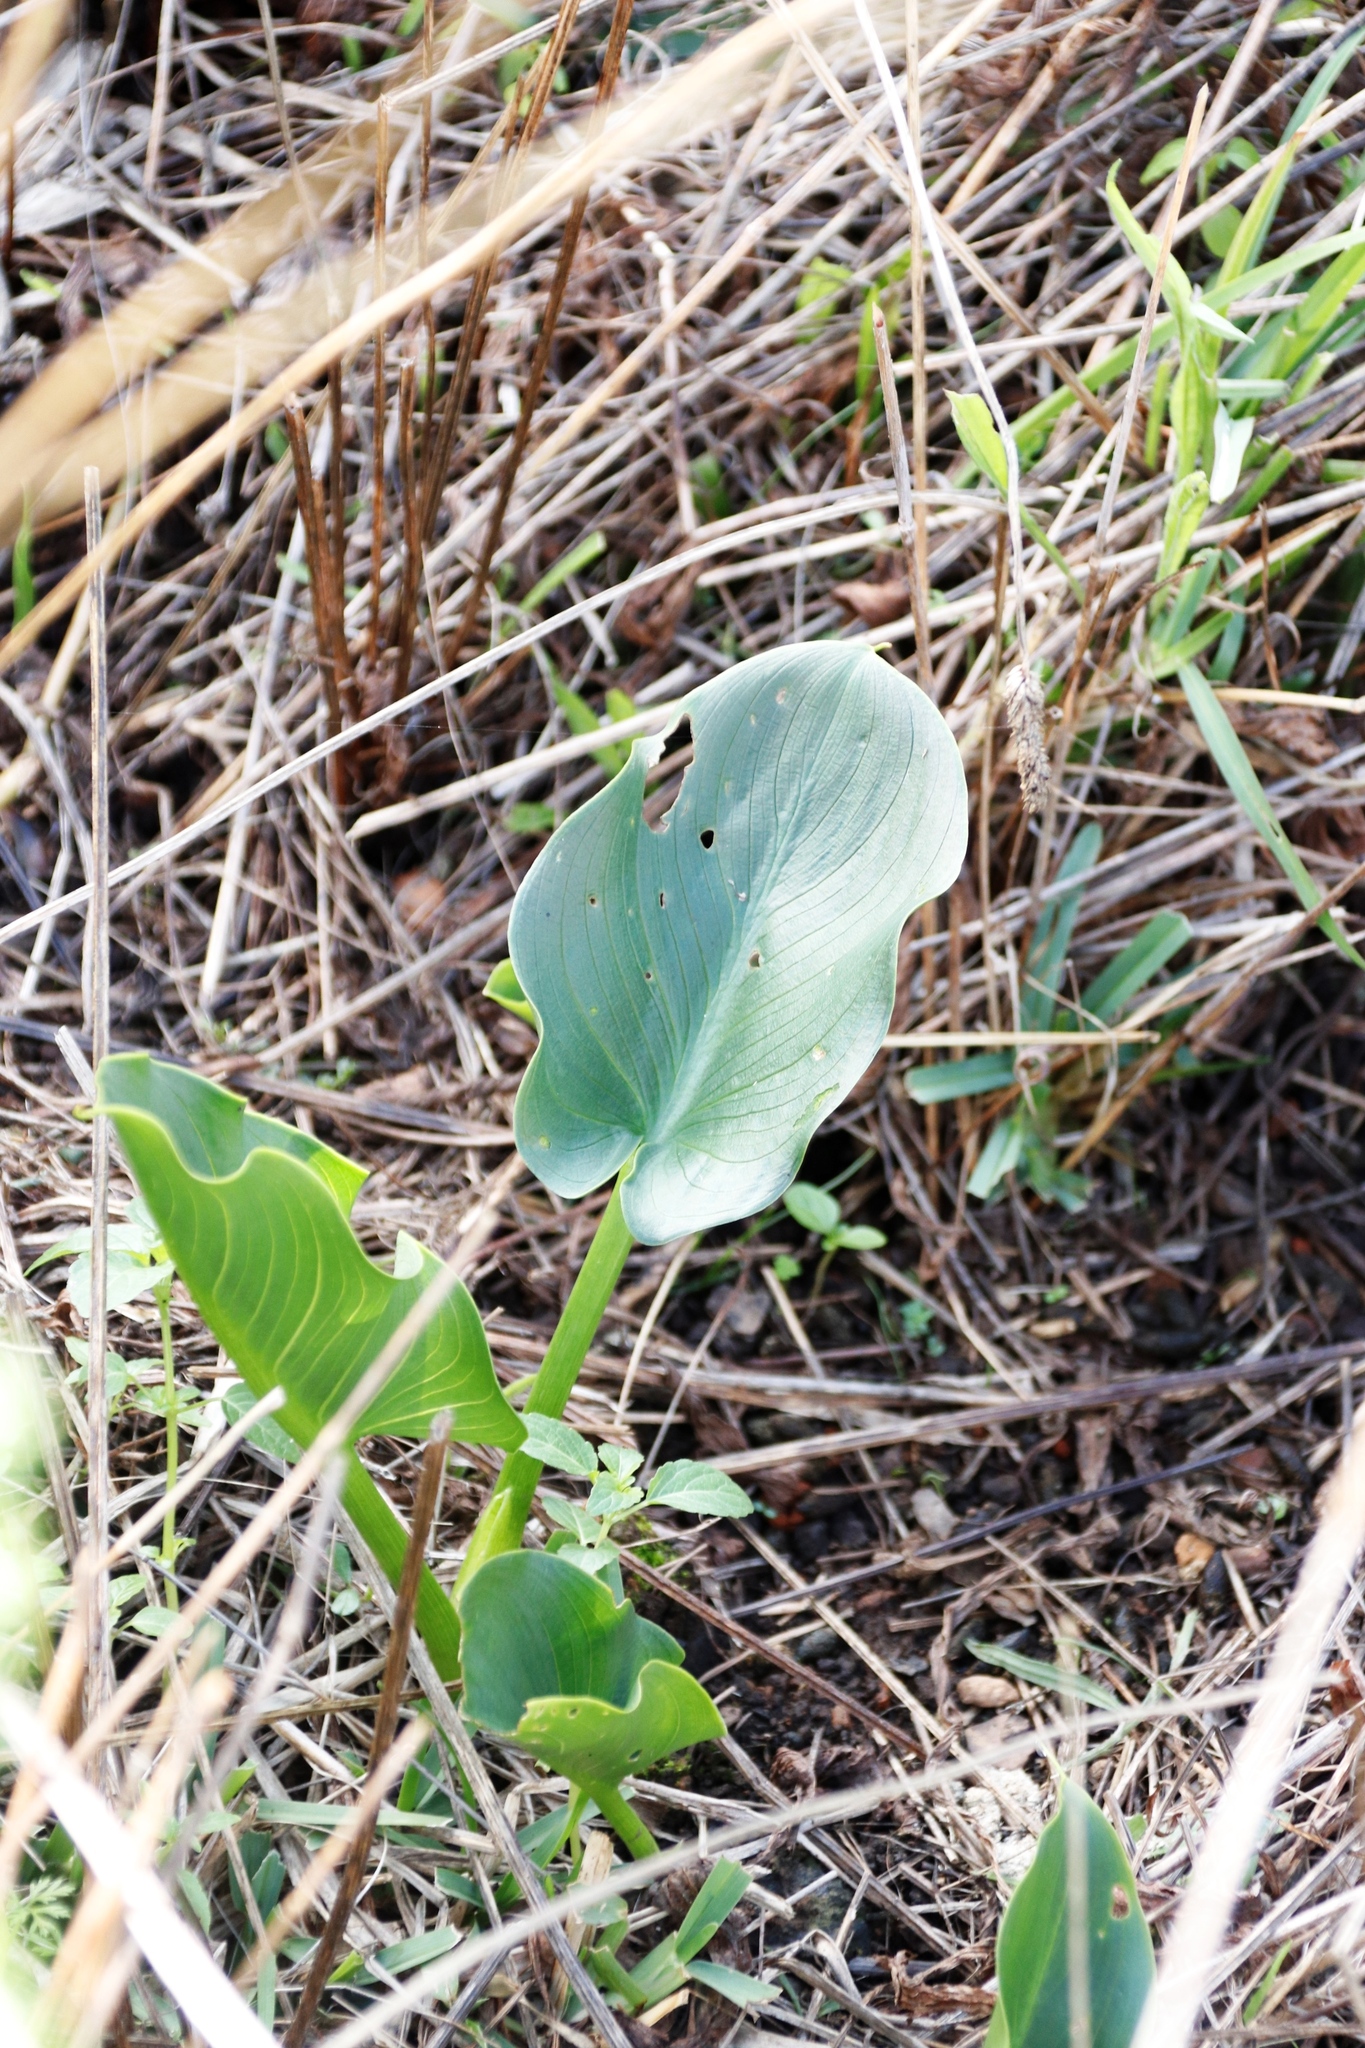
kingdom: Plantae
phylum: Tracheophyta
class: Liliopsida
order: Alismatales
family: Araceae
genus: Zantedeschia
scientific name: Zantedeschia aethiopica
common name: Altar-lily
